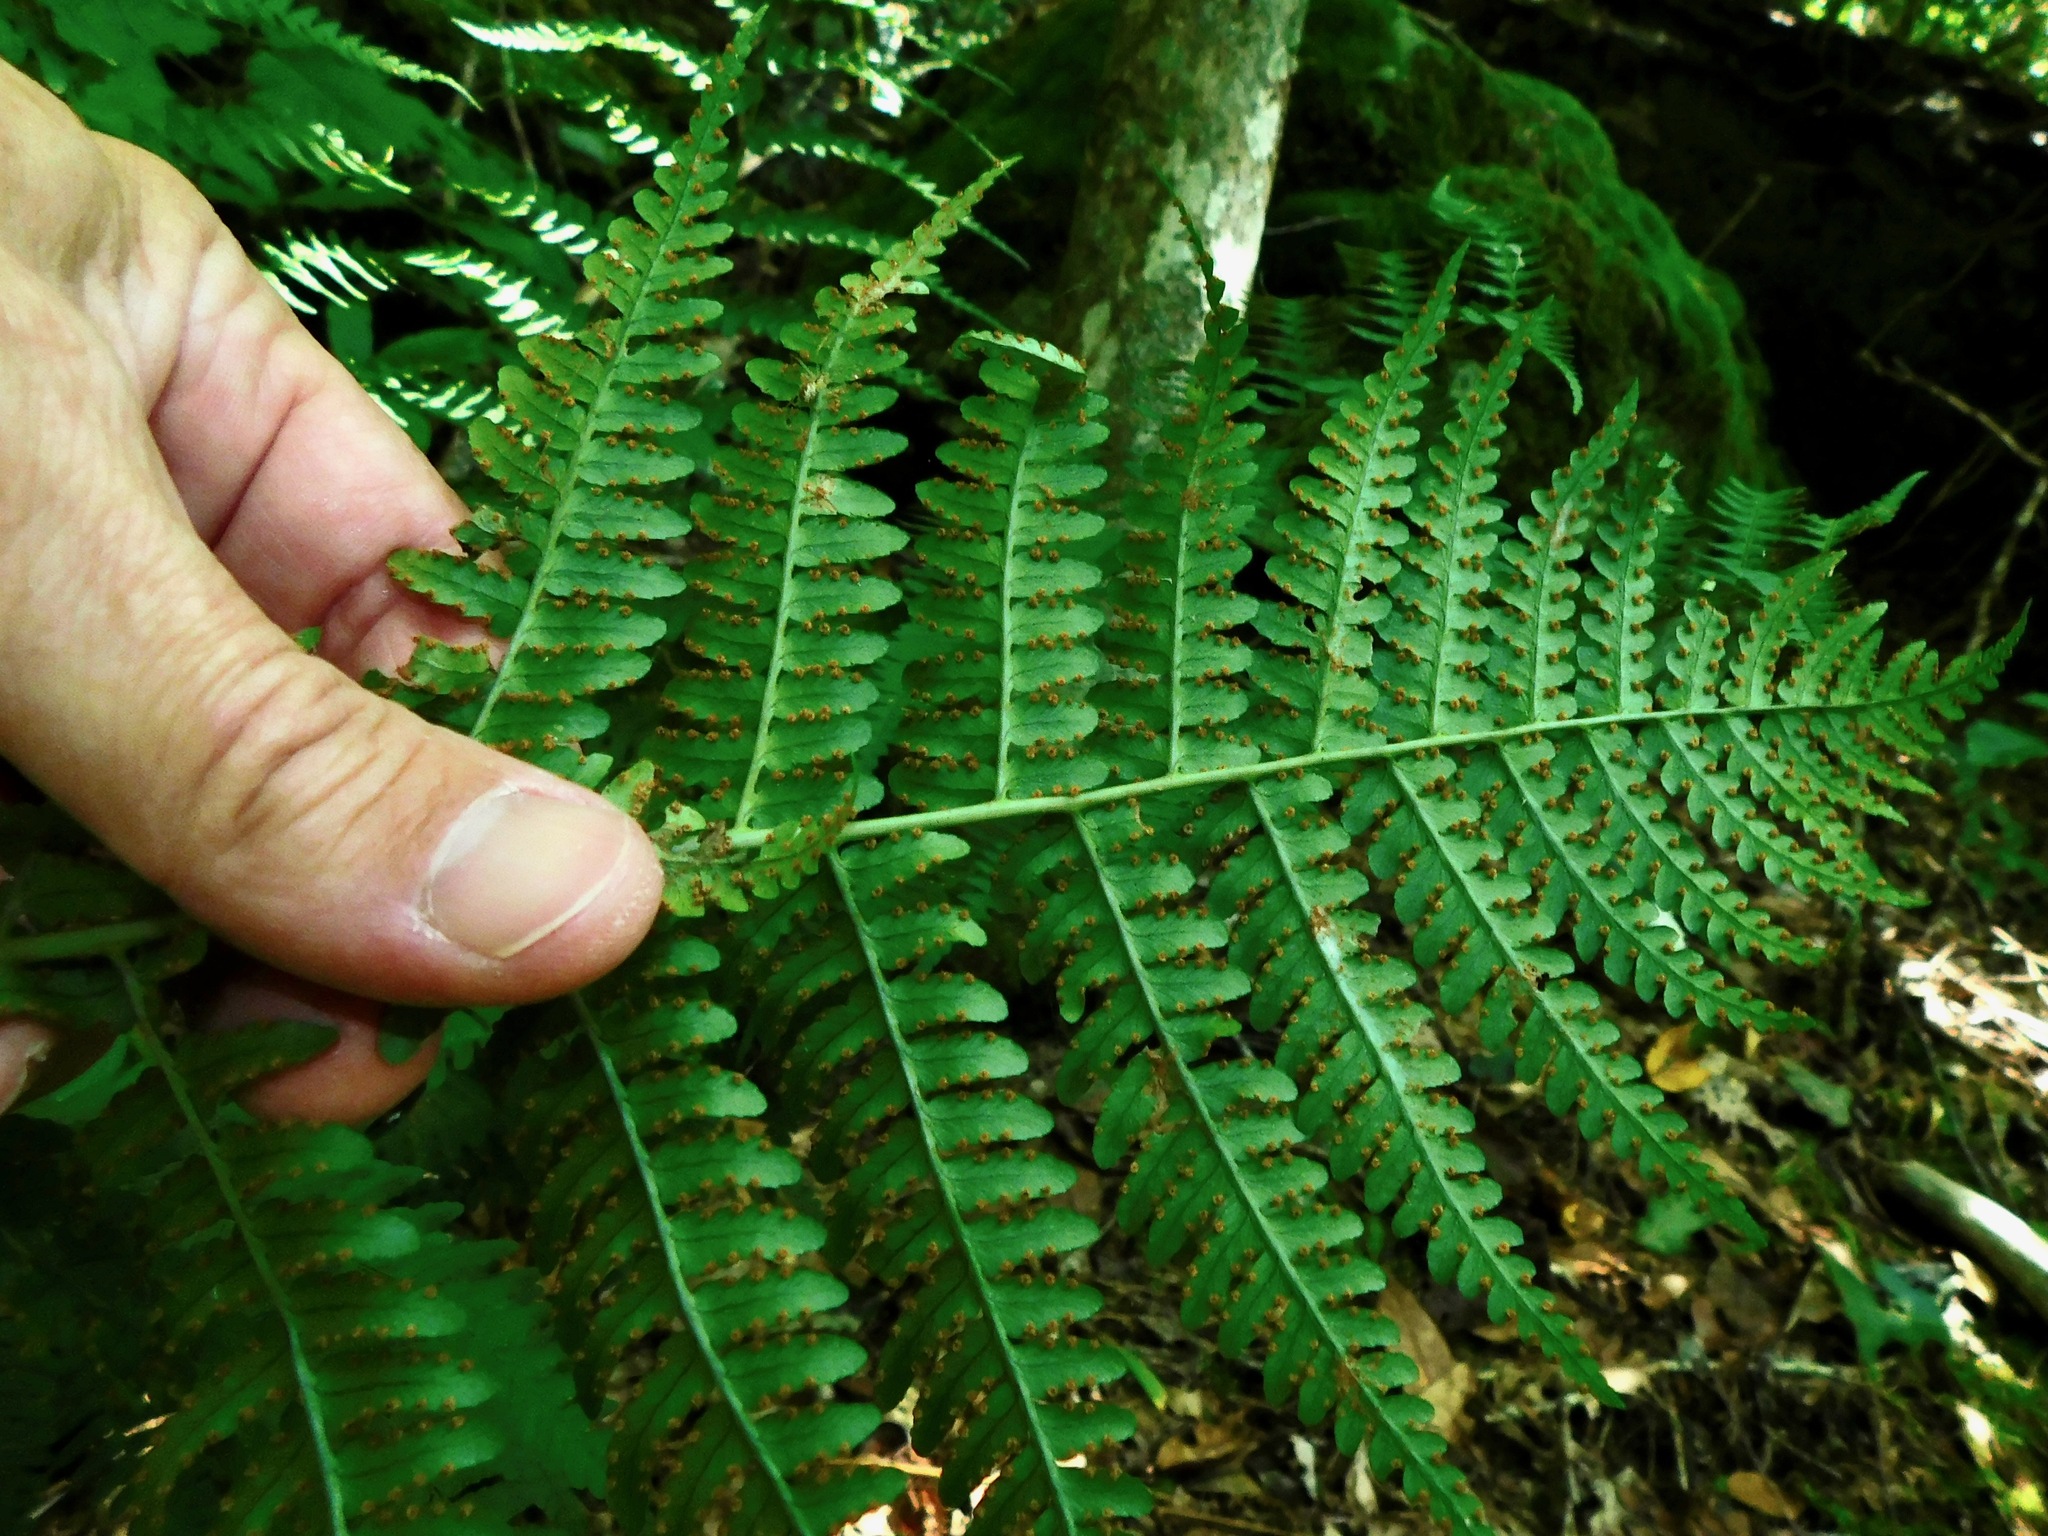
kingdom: Plantae
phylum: Tracheophyta
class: Polypodiopsida
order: Polypodiales
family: Dryopteridaceae
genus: Dryopteris
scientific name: Dryopteris marginalis
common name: Marginal wood fern
